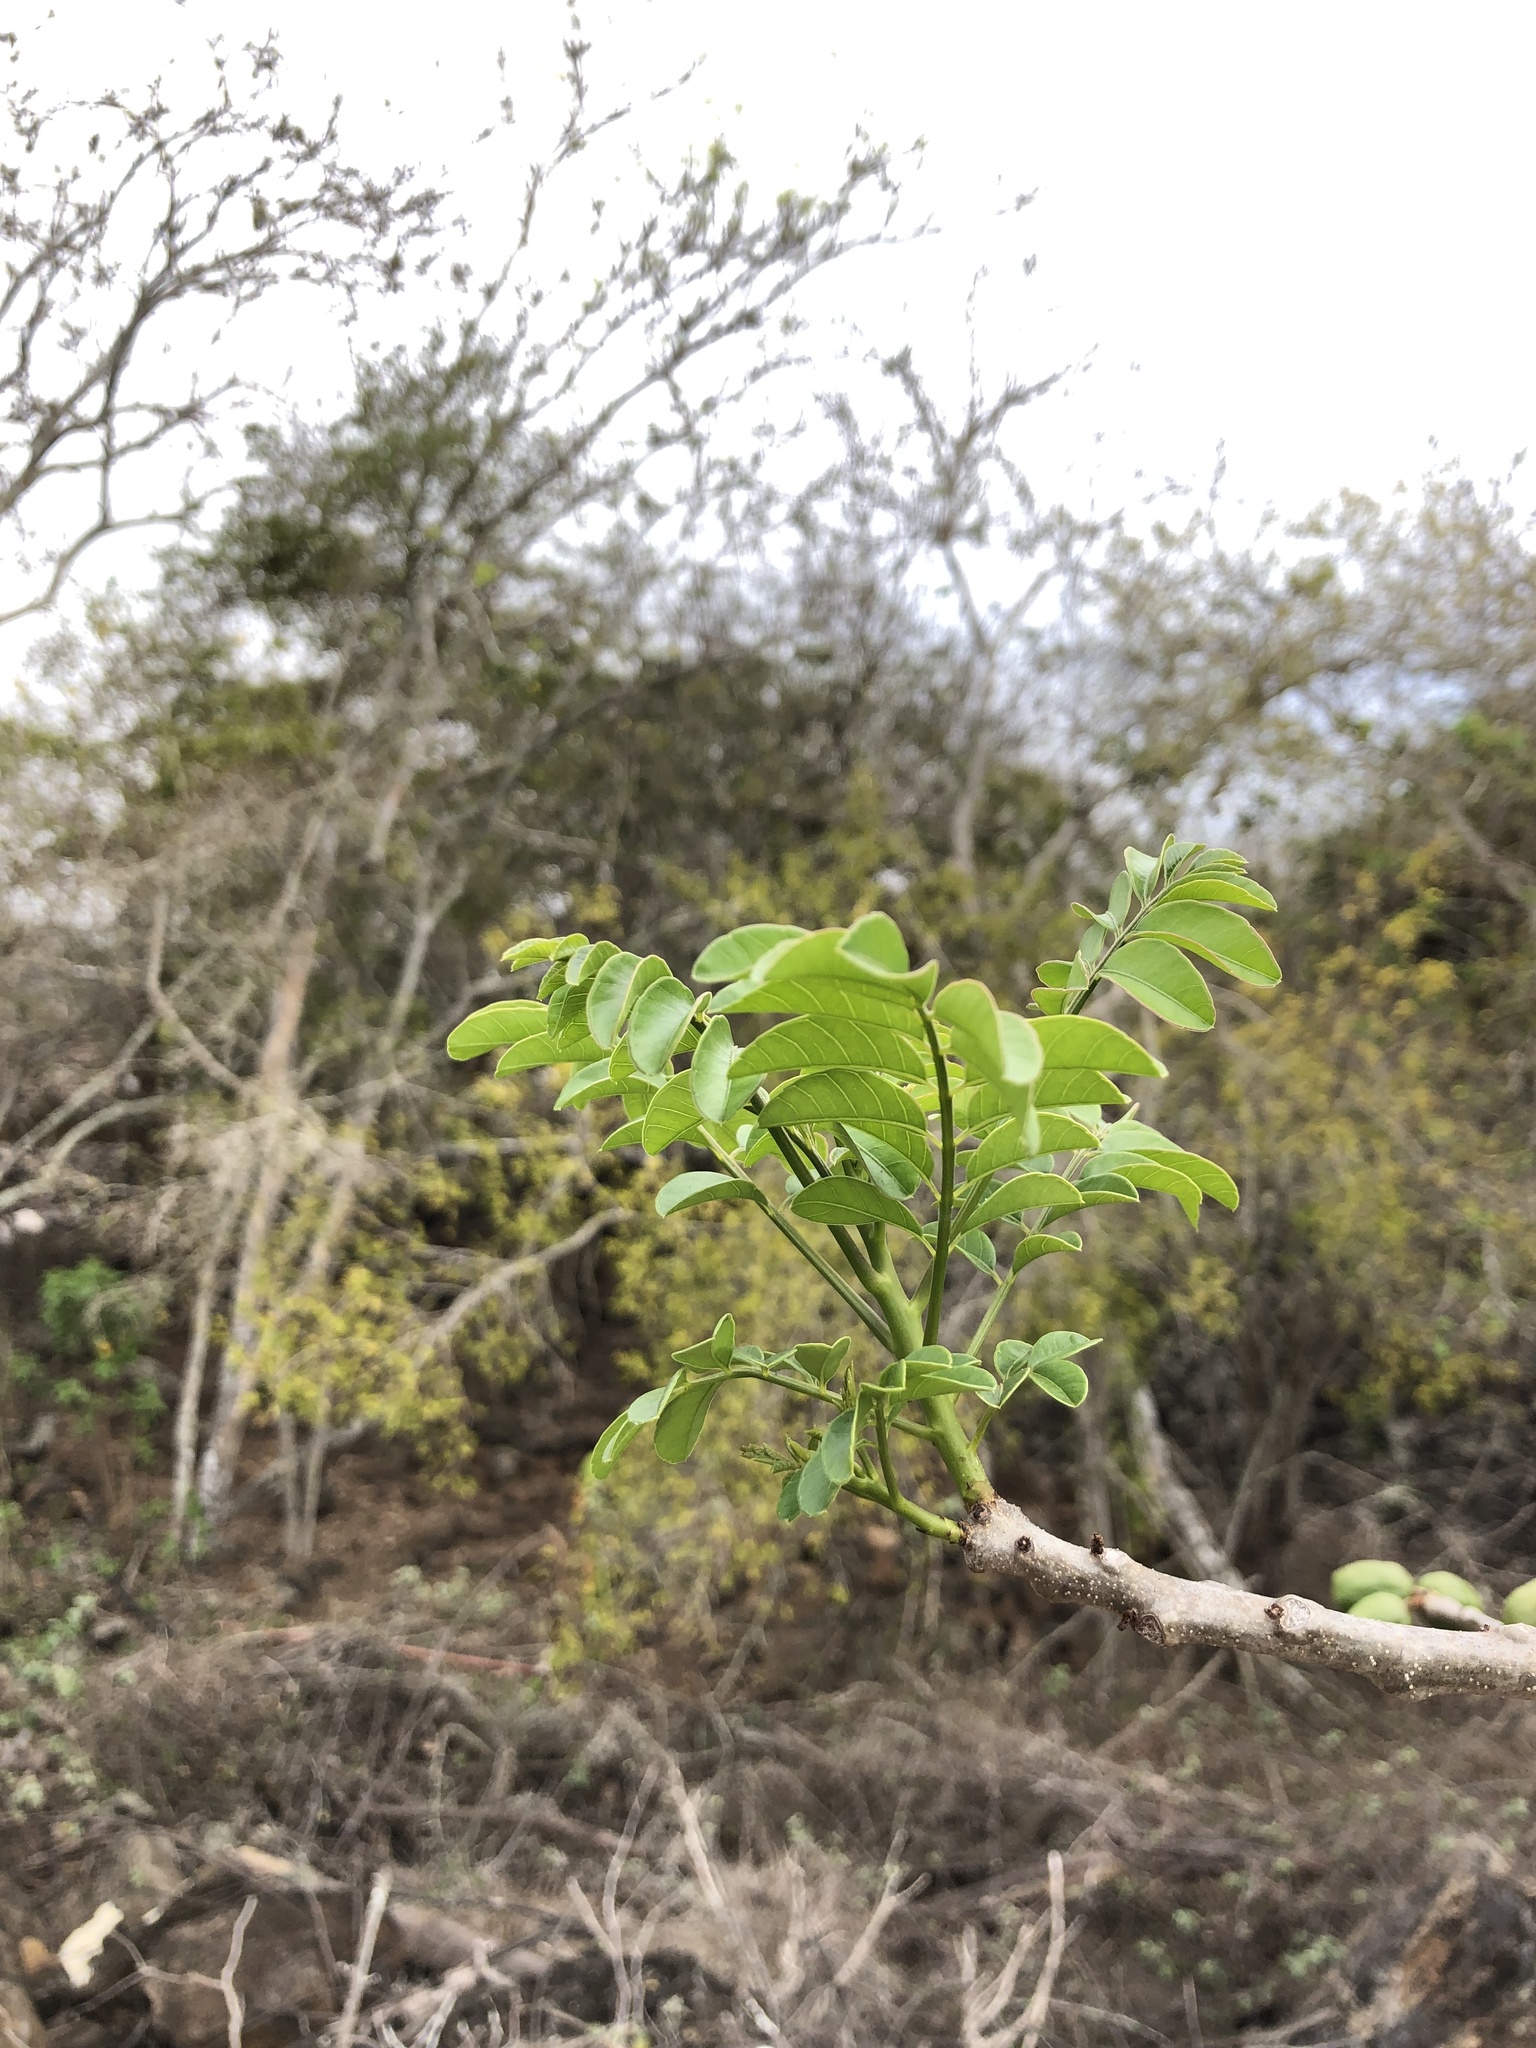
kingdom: Plantae
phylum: Tracheophyta
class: Magnoliopsida
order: Sapindales
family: Anacardiaceae
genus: Spondias
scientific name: Spondias purpurea
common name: Purple mombin
